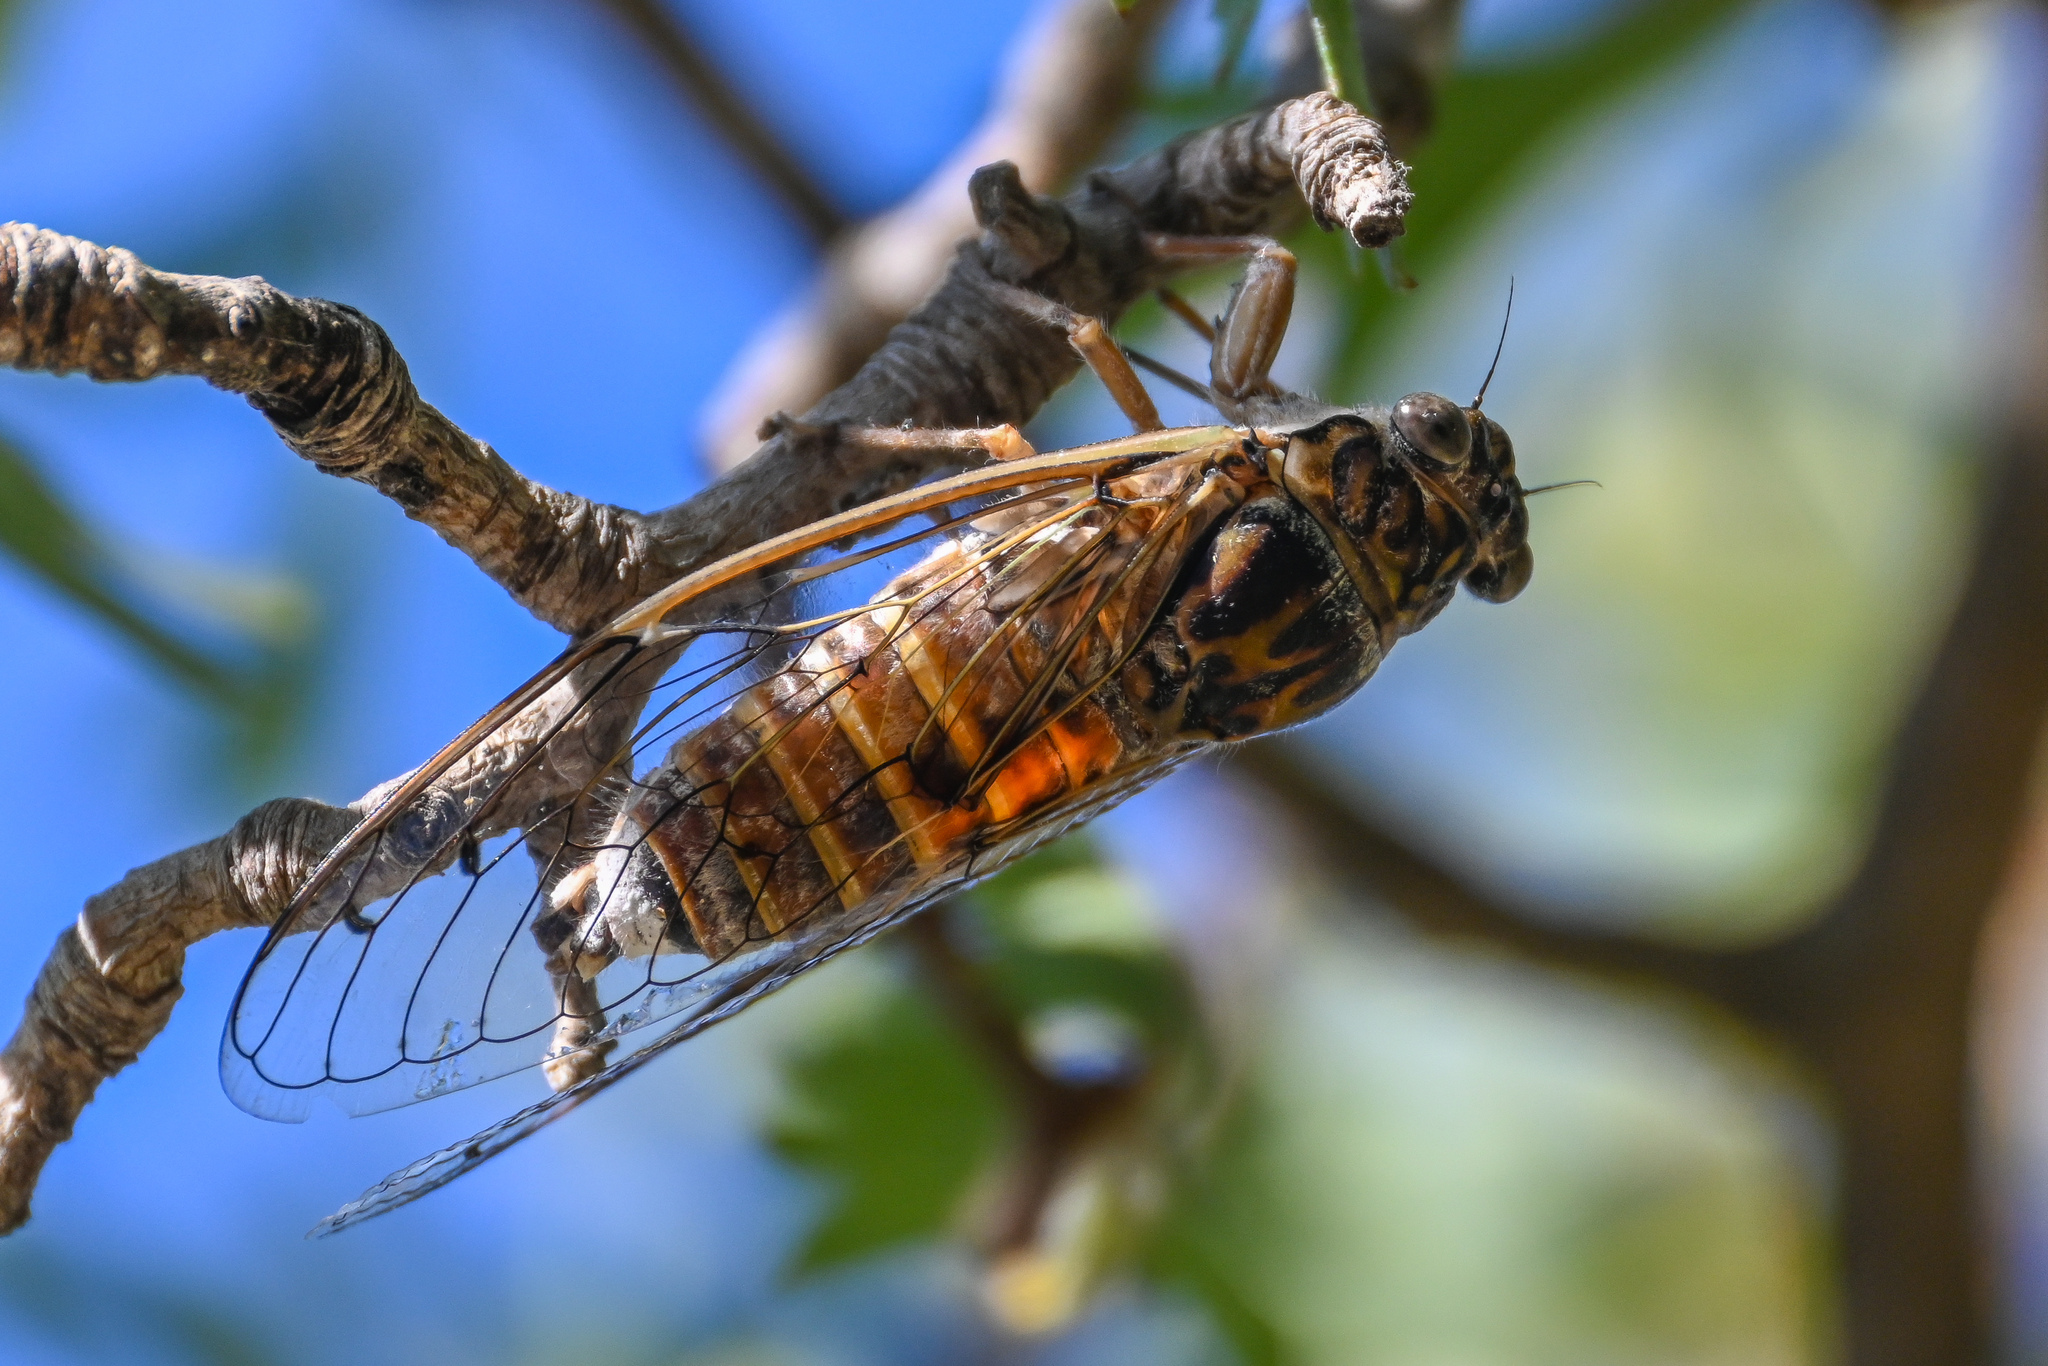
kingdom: Animalia
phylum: Arthropoda
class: Insecta
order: Hemiptera
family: Cicadidae
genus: Cicada
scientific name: Cicada
